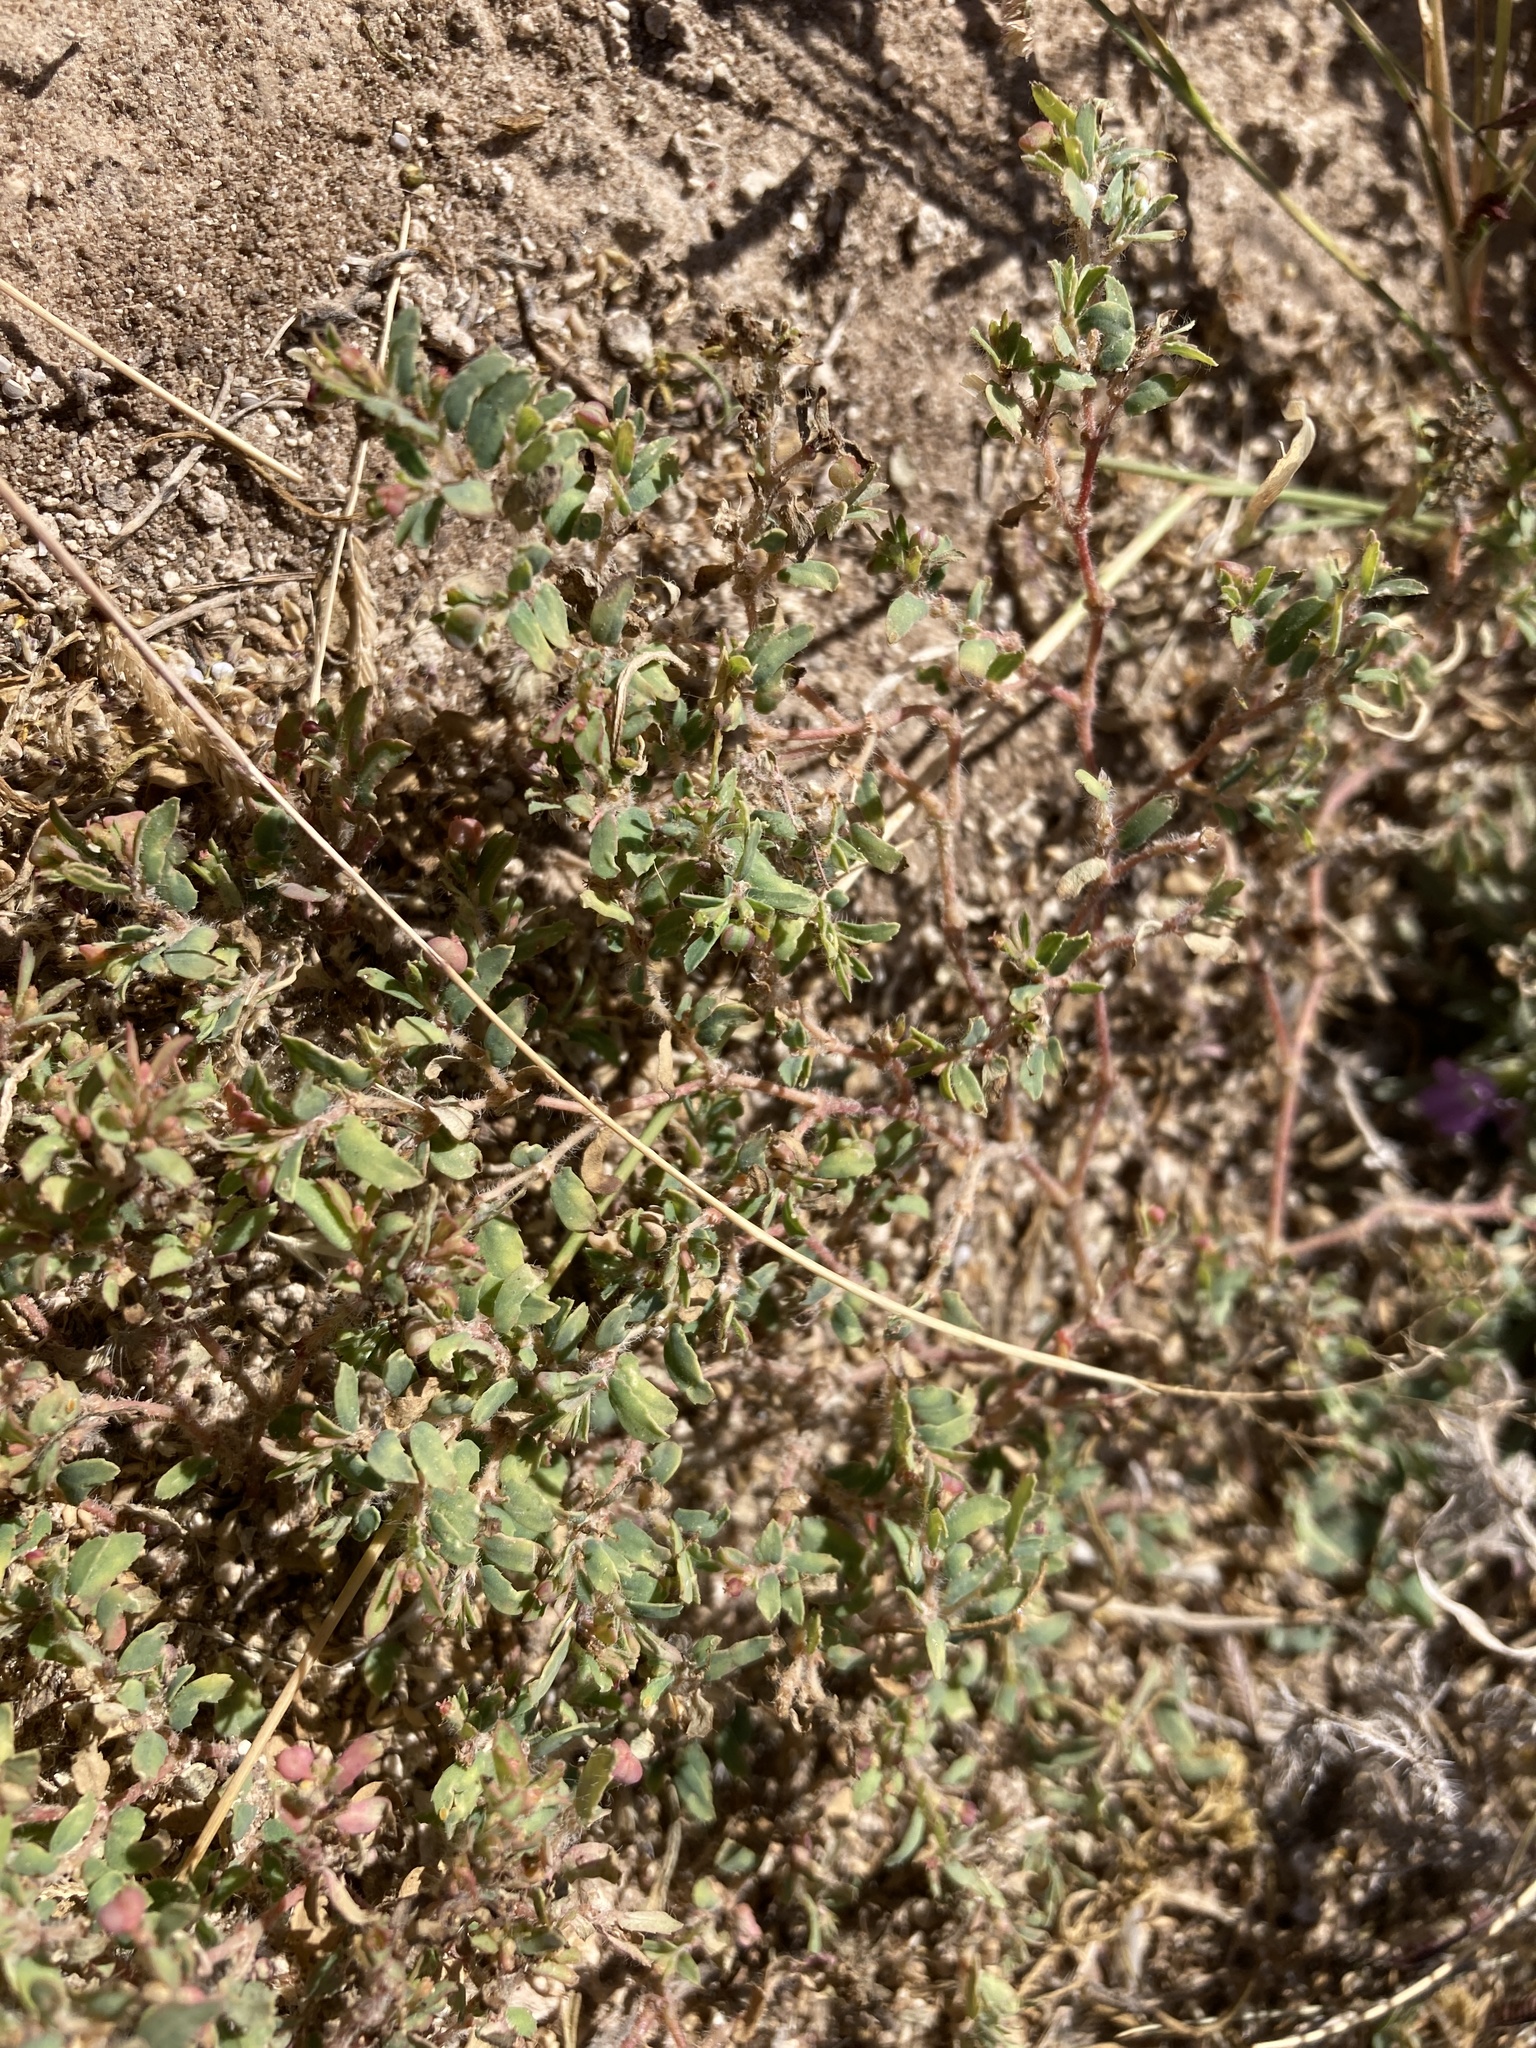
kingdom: Plantae
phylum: Tracheophyta
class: Magnoliopsida
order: Malpighiales
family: Euphorbiaceae
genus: Euphorbia
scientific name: Euphorbia serrula
